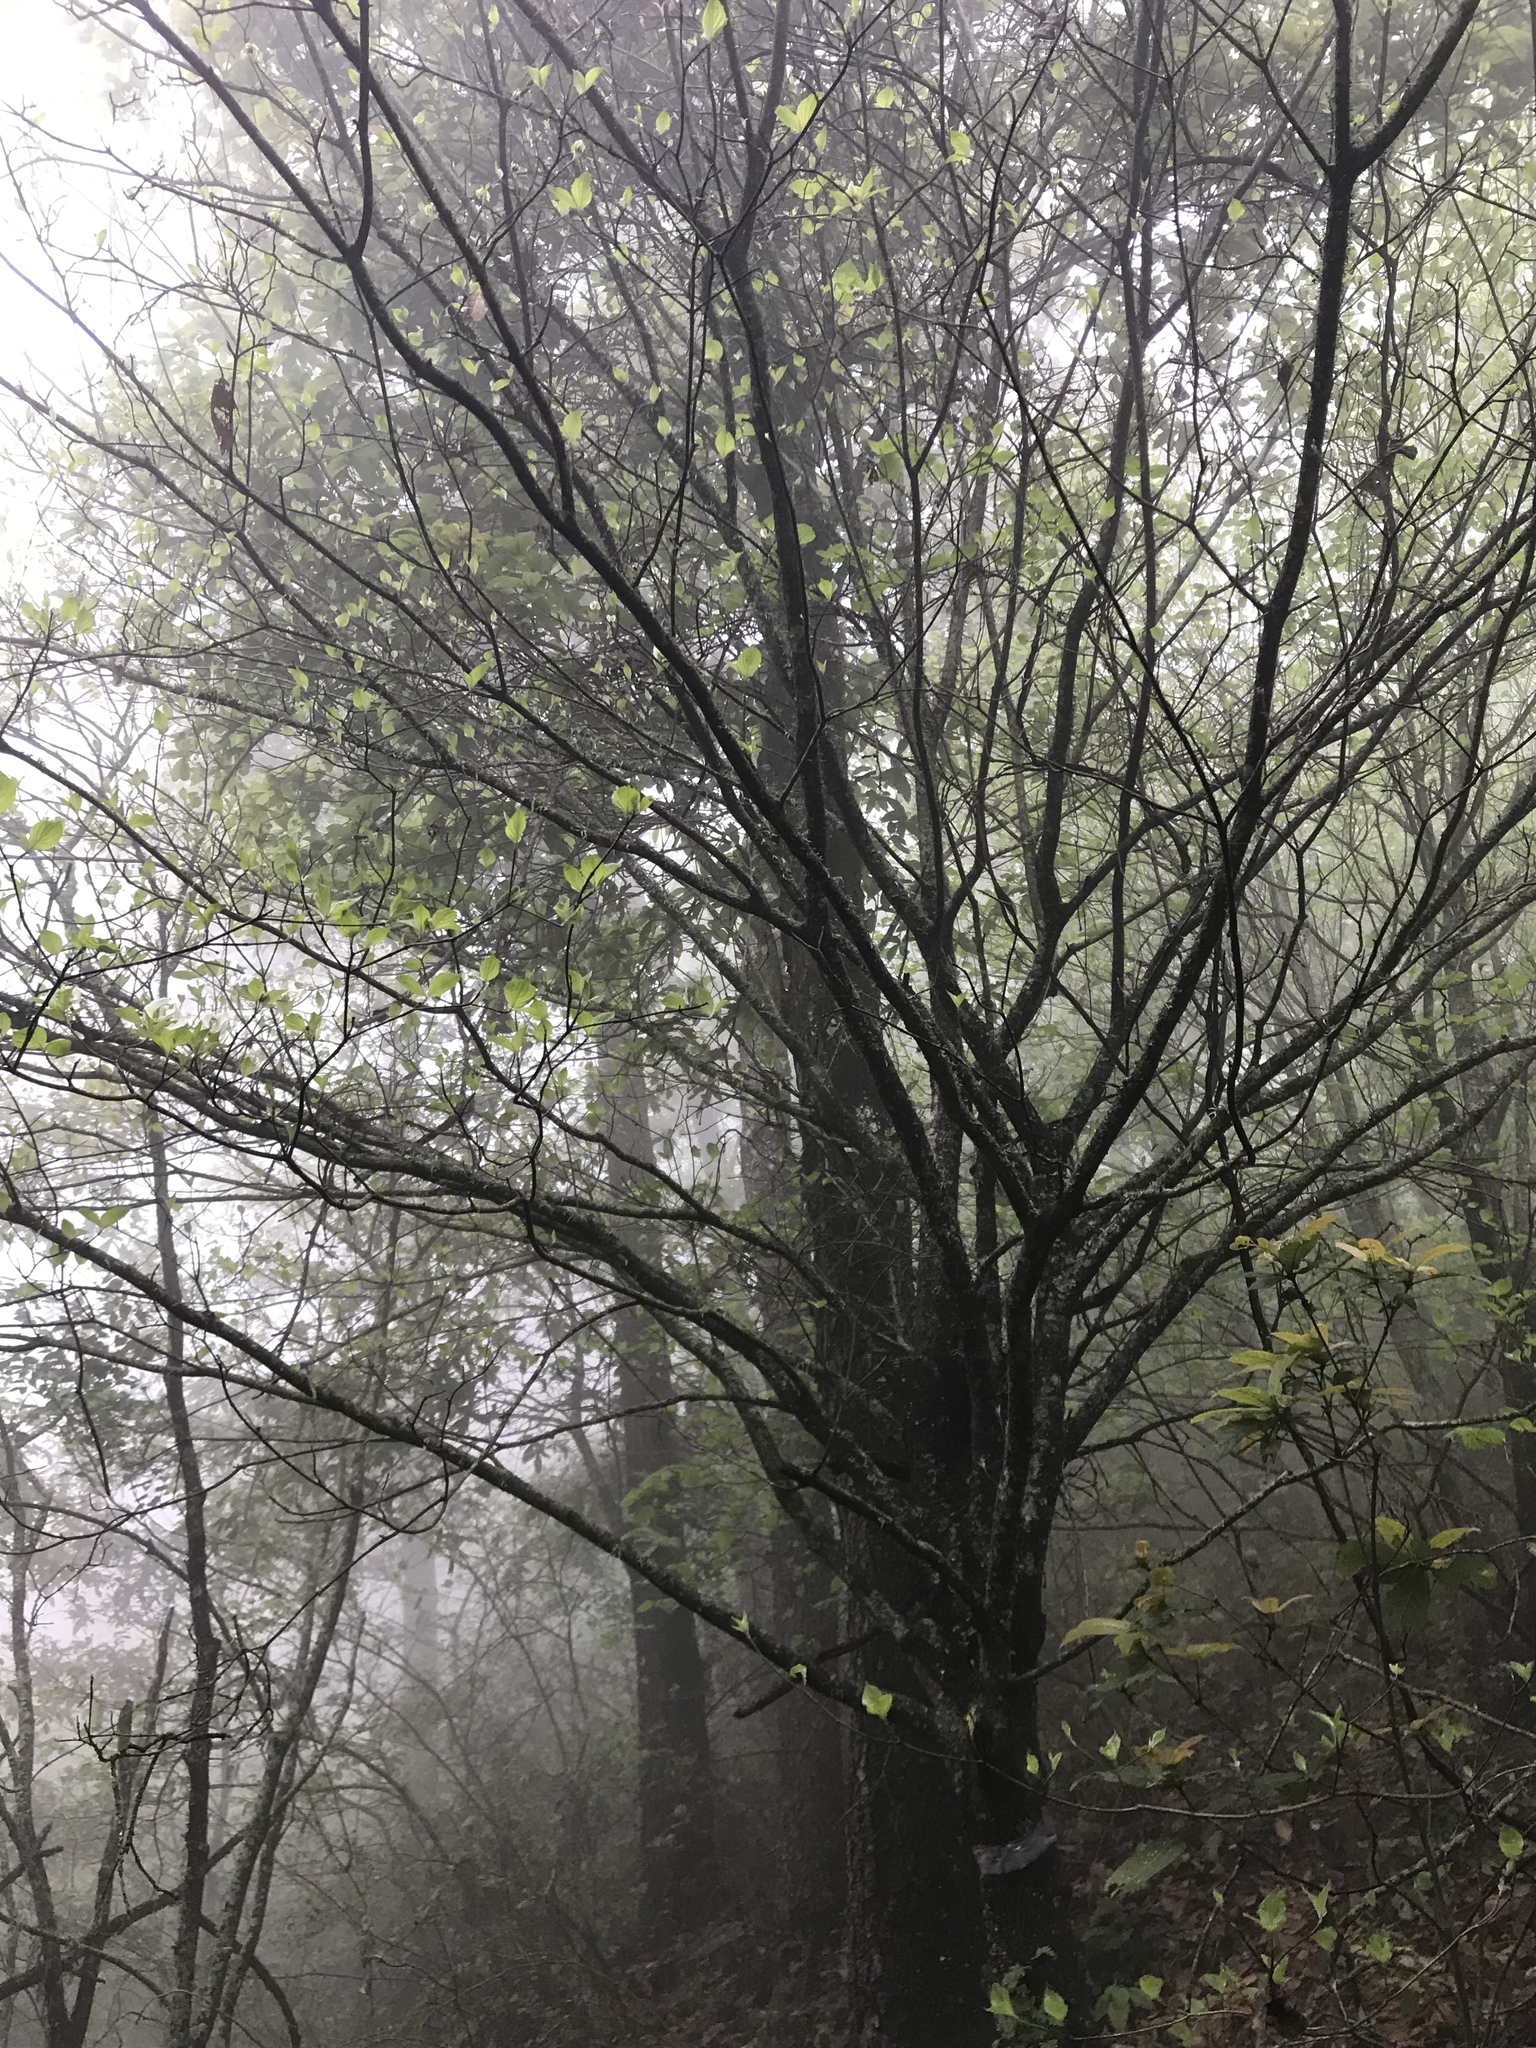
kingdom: Plantae
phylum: Tracheophyta
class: Magnoliopsida
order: Cornales
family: Cornaceae
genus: Cornus
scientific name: Cornus florida
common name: Flowering dogwood
